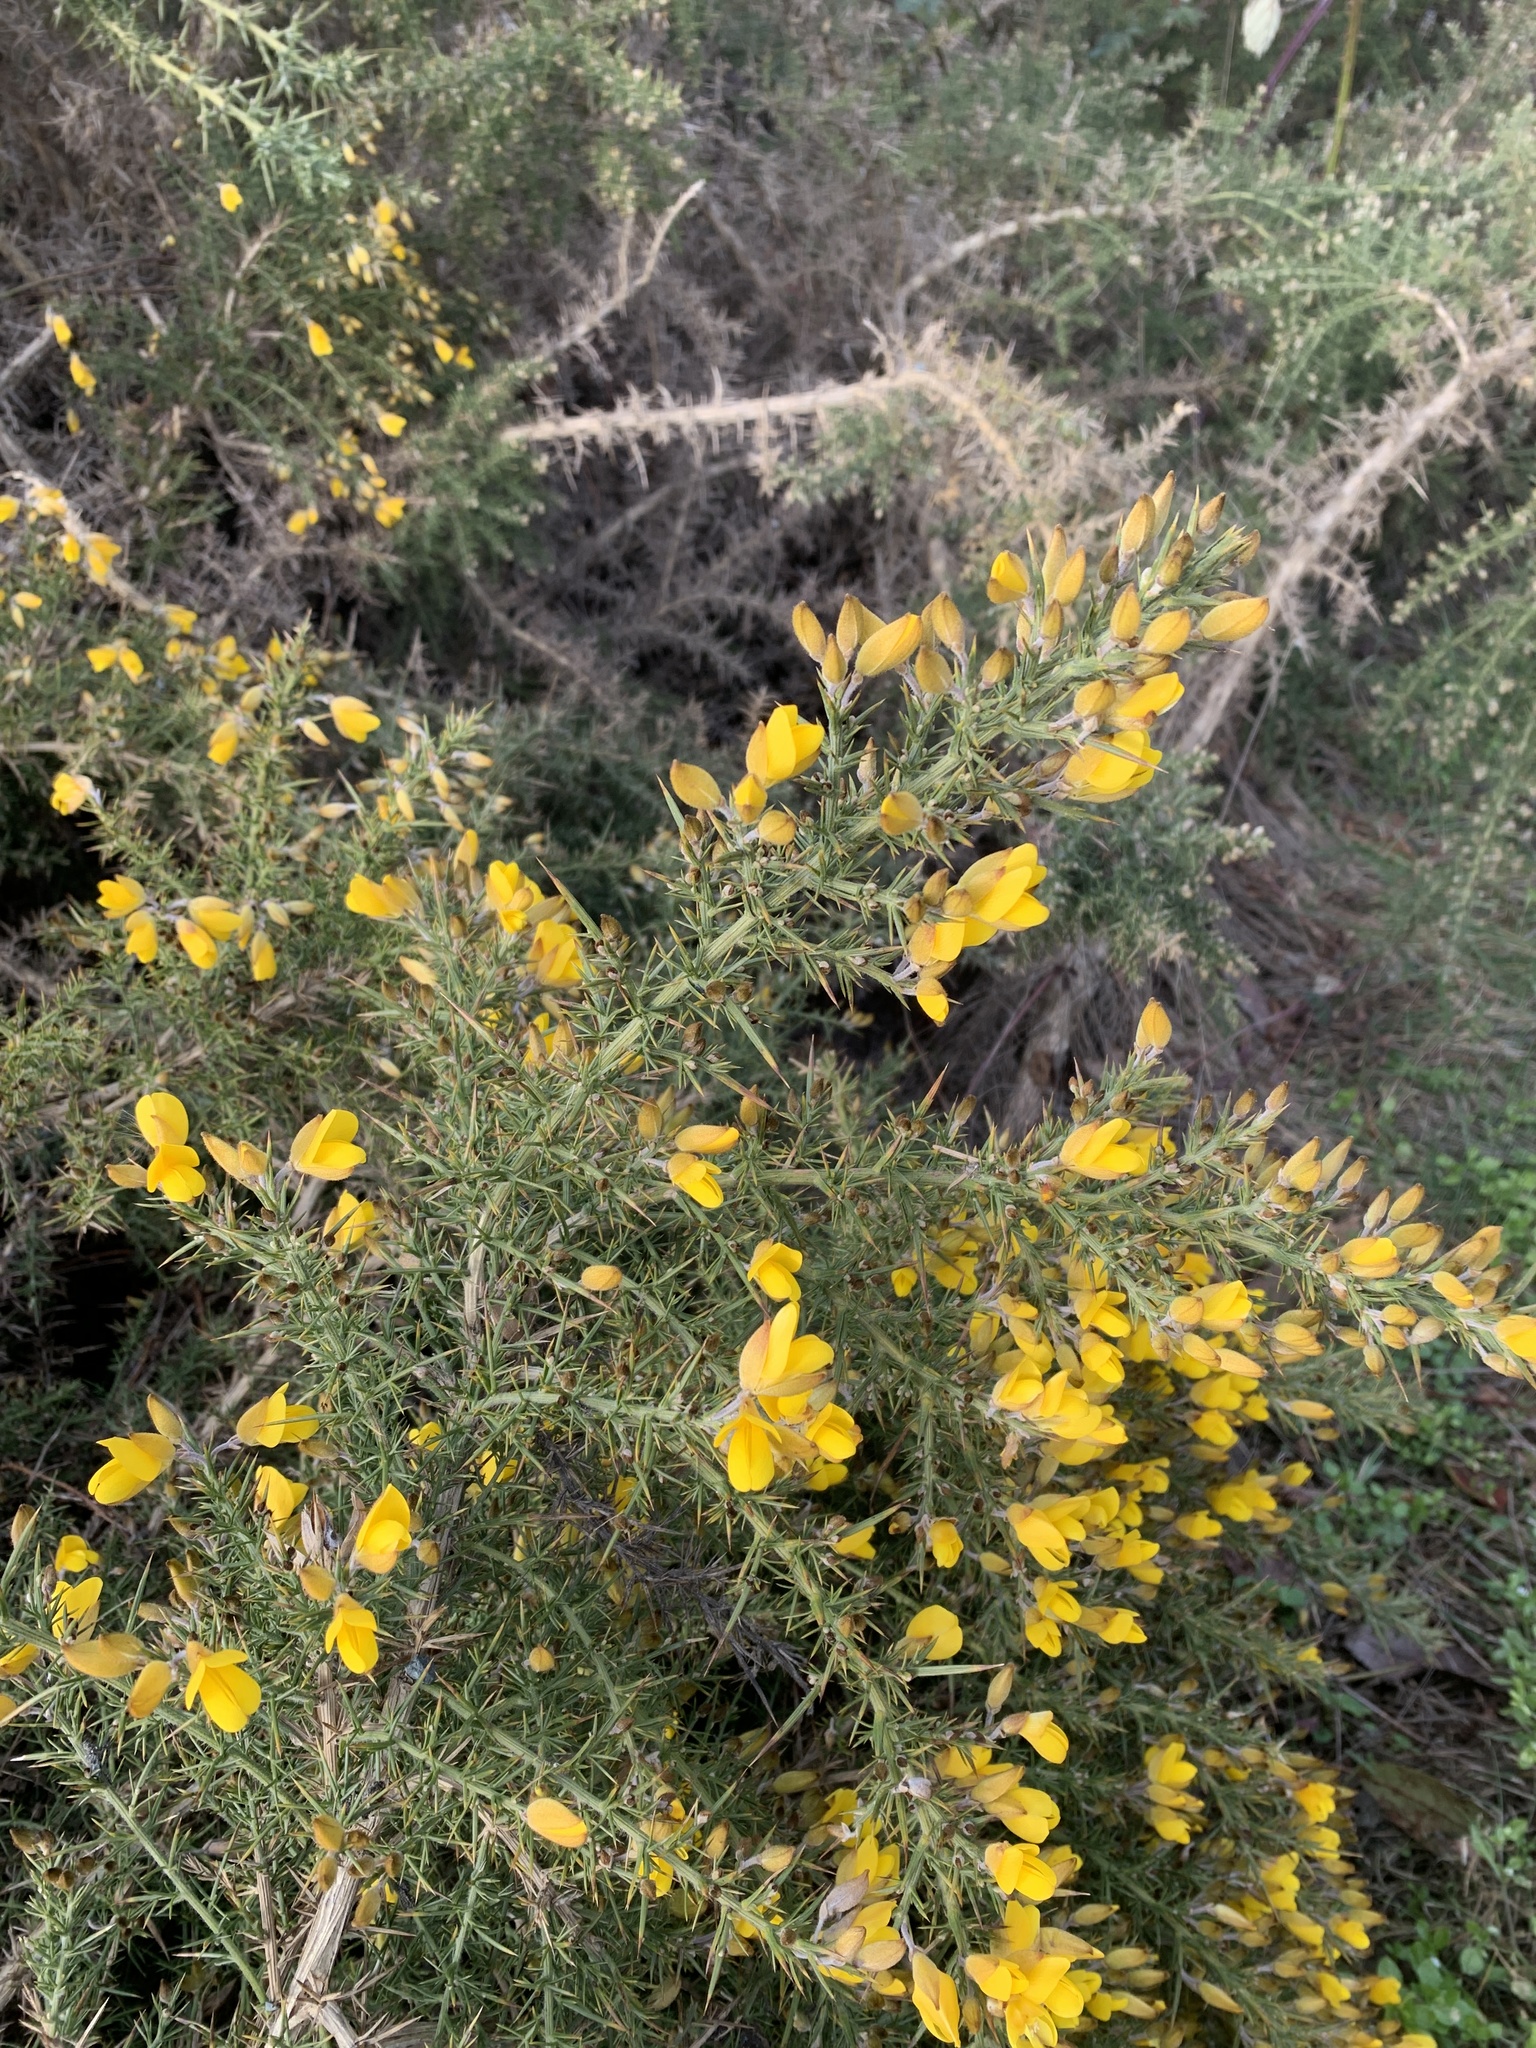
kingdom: Plantae
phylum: Tracheophyta
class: Magnoliopsida
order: Fabales
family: Fabaceae
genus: Ulex
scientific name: Ulex europaeus
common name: Common gorse
